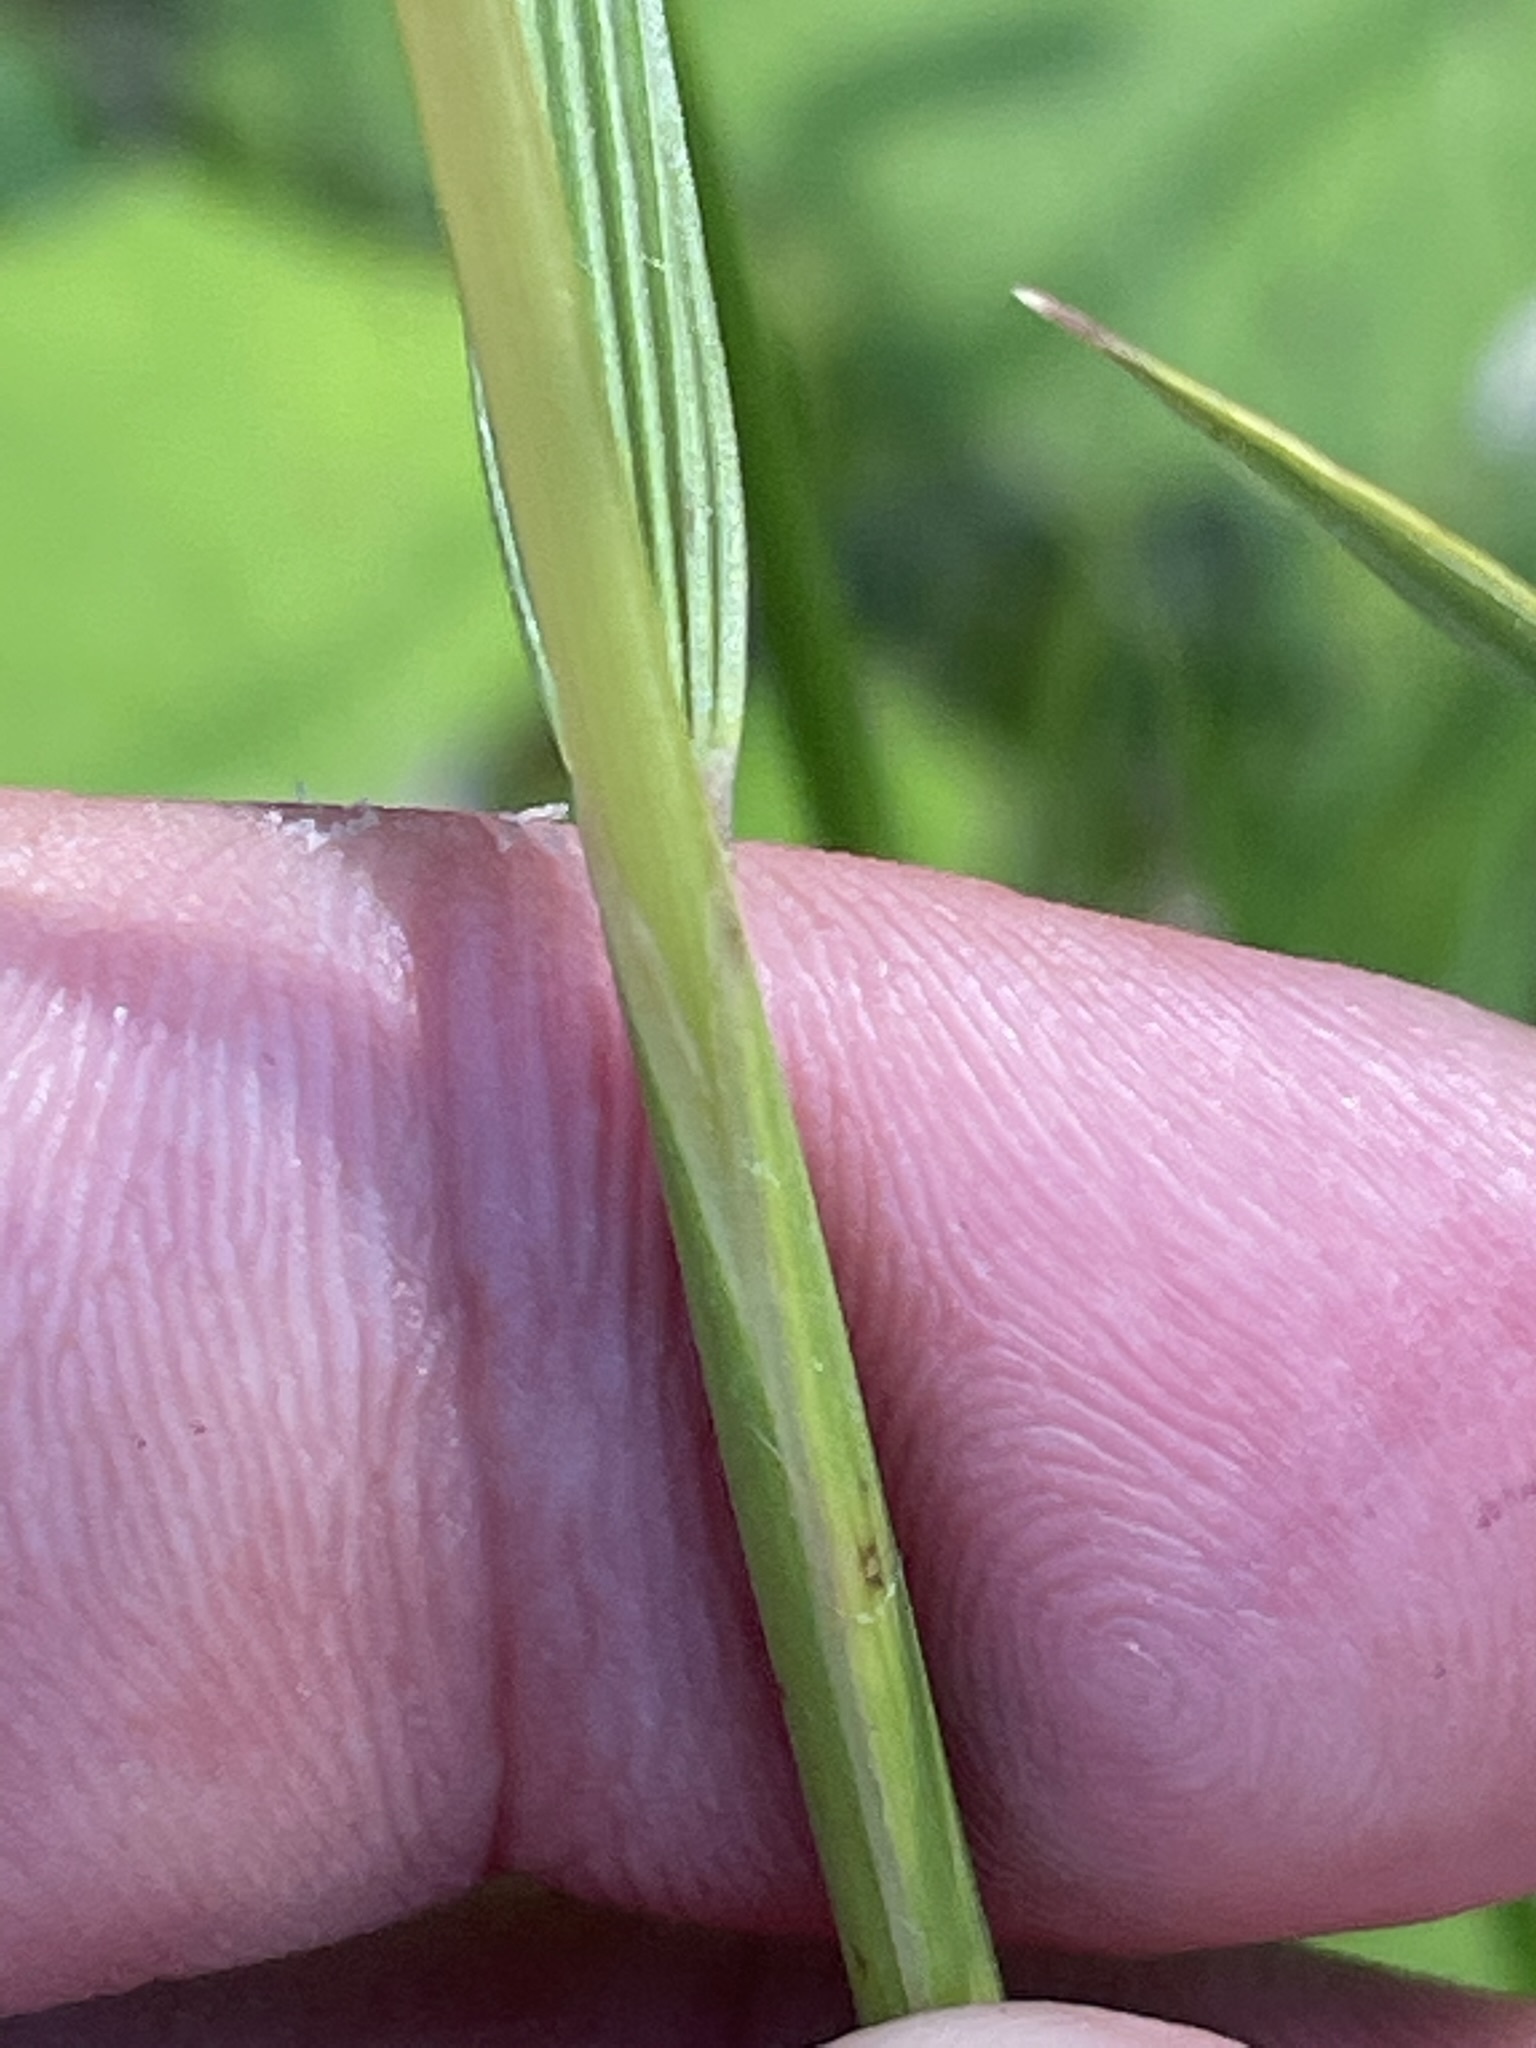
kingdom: Plantae
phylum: Tracheophyta
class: Liliopsida
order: Poales
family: Poaceae
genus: Deschampsia
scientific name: Deschampsia cespitosa
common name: Tufted hair-grass
